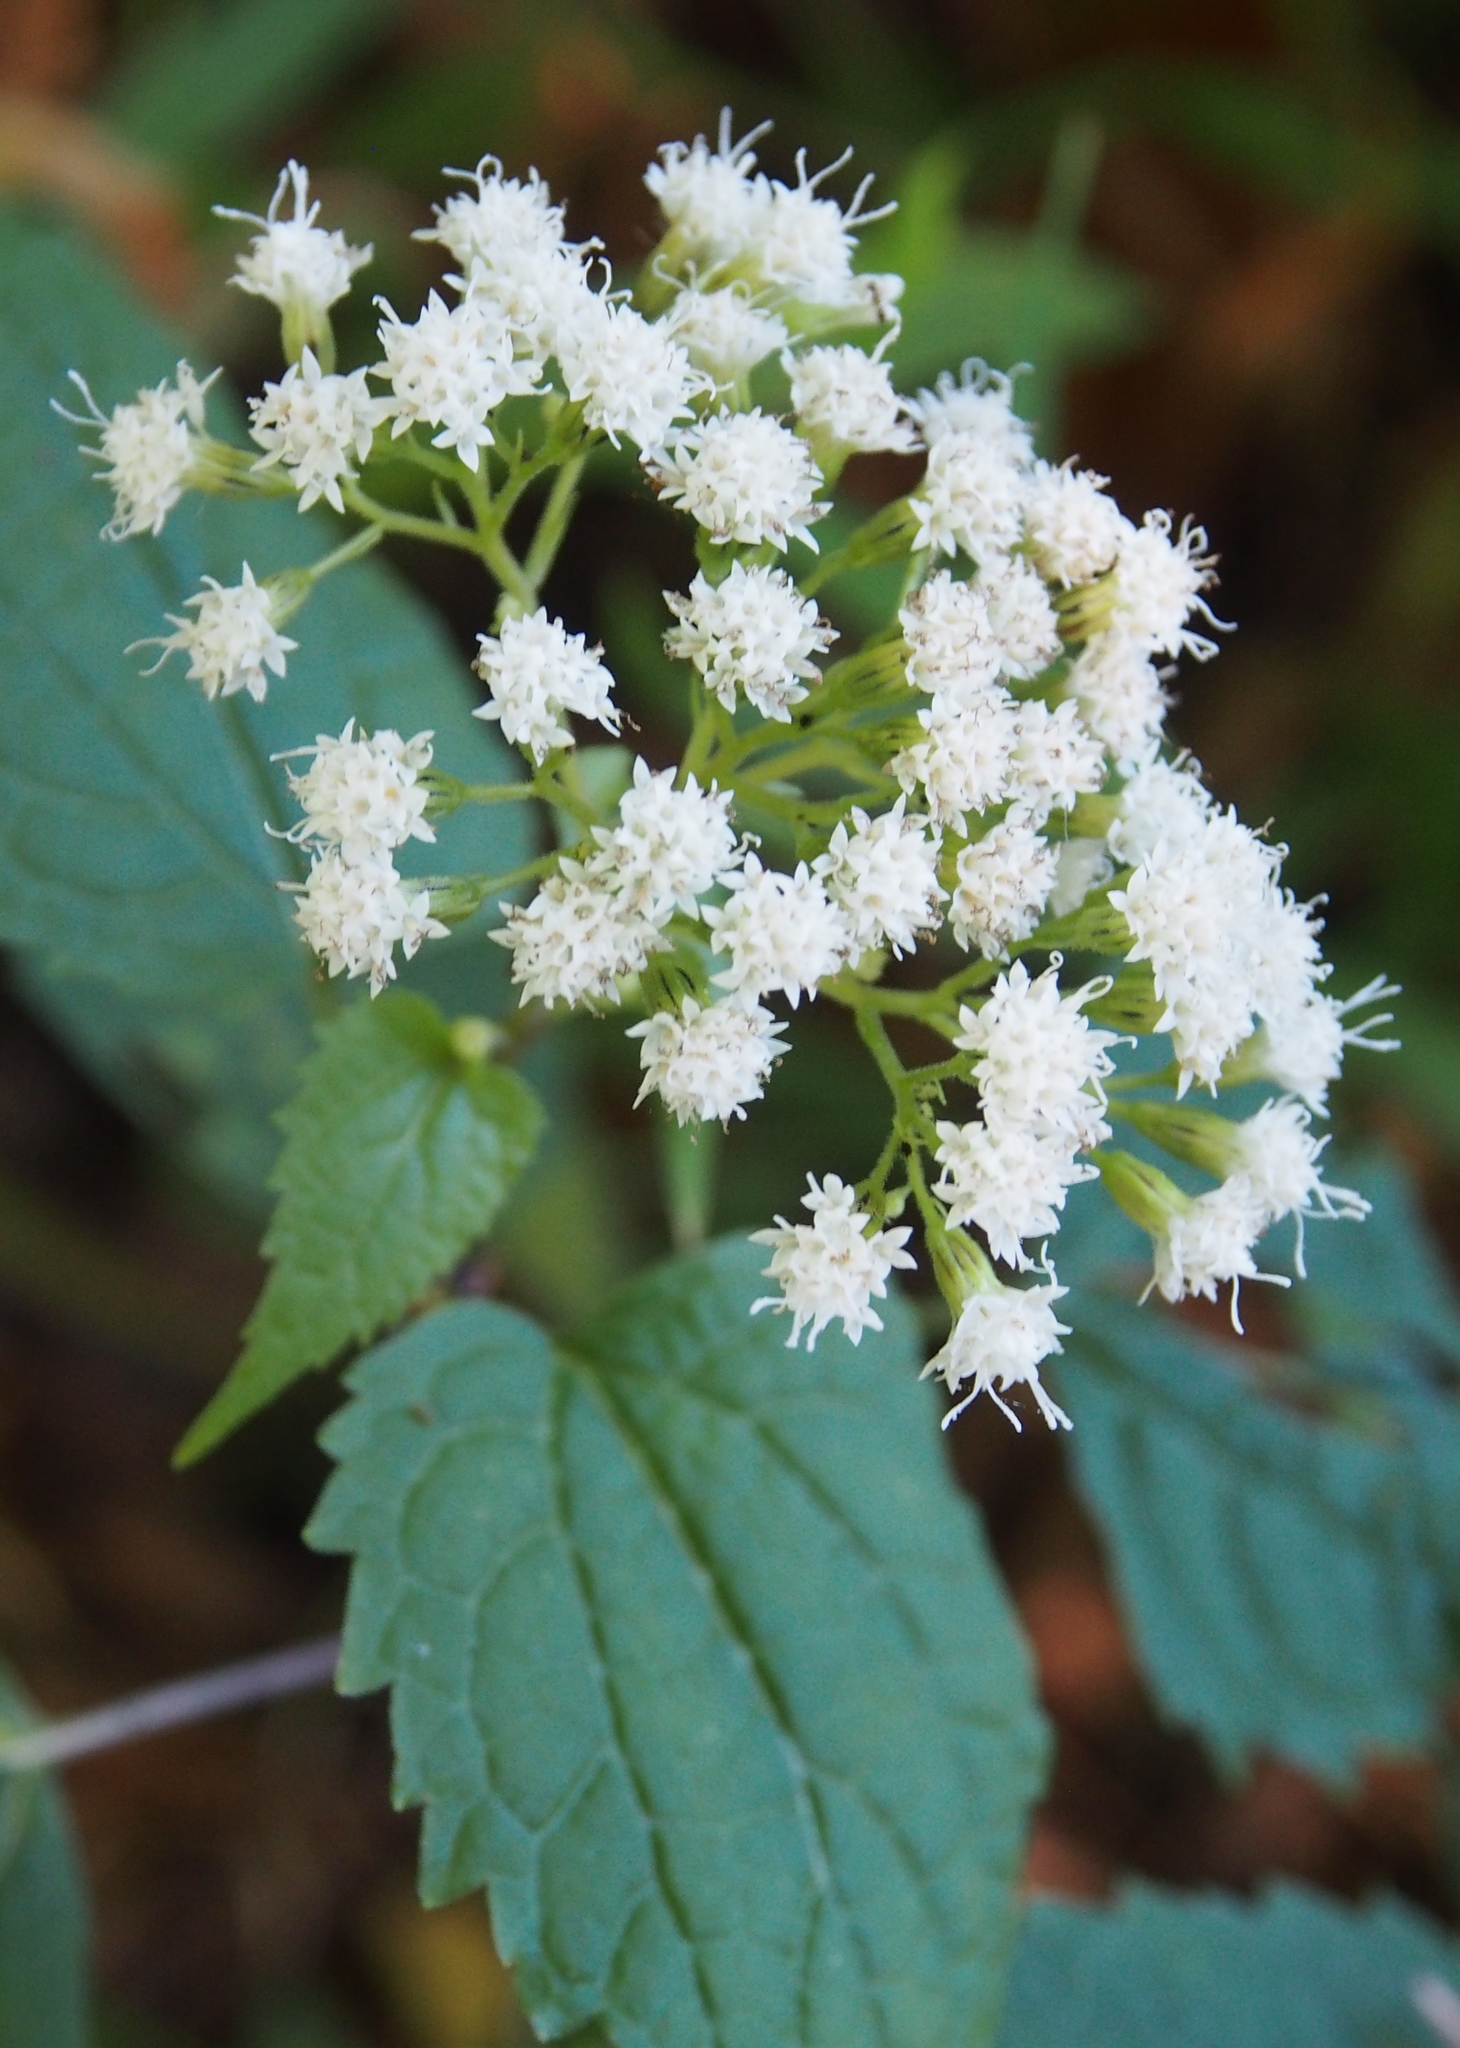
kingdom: Plantae
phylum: Tracheophyta
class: Magnoliopsida
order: Asterales
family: Asteraceae
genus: Ageratina
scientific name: Ageratina altissima
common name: White snakeroot
